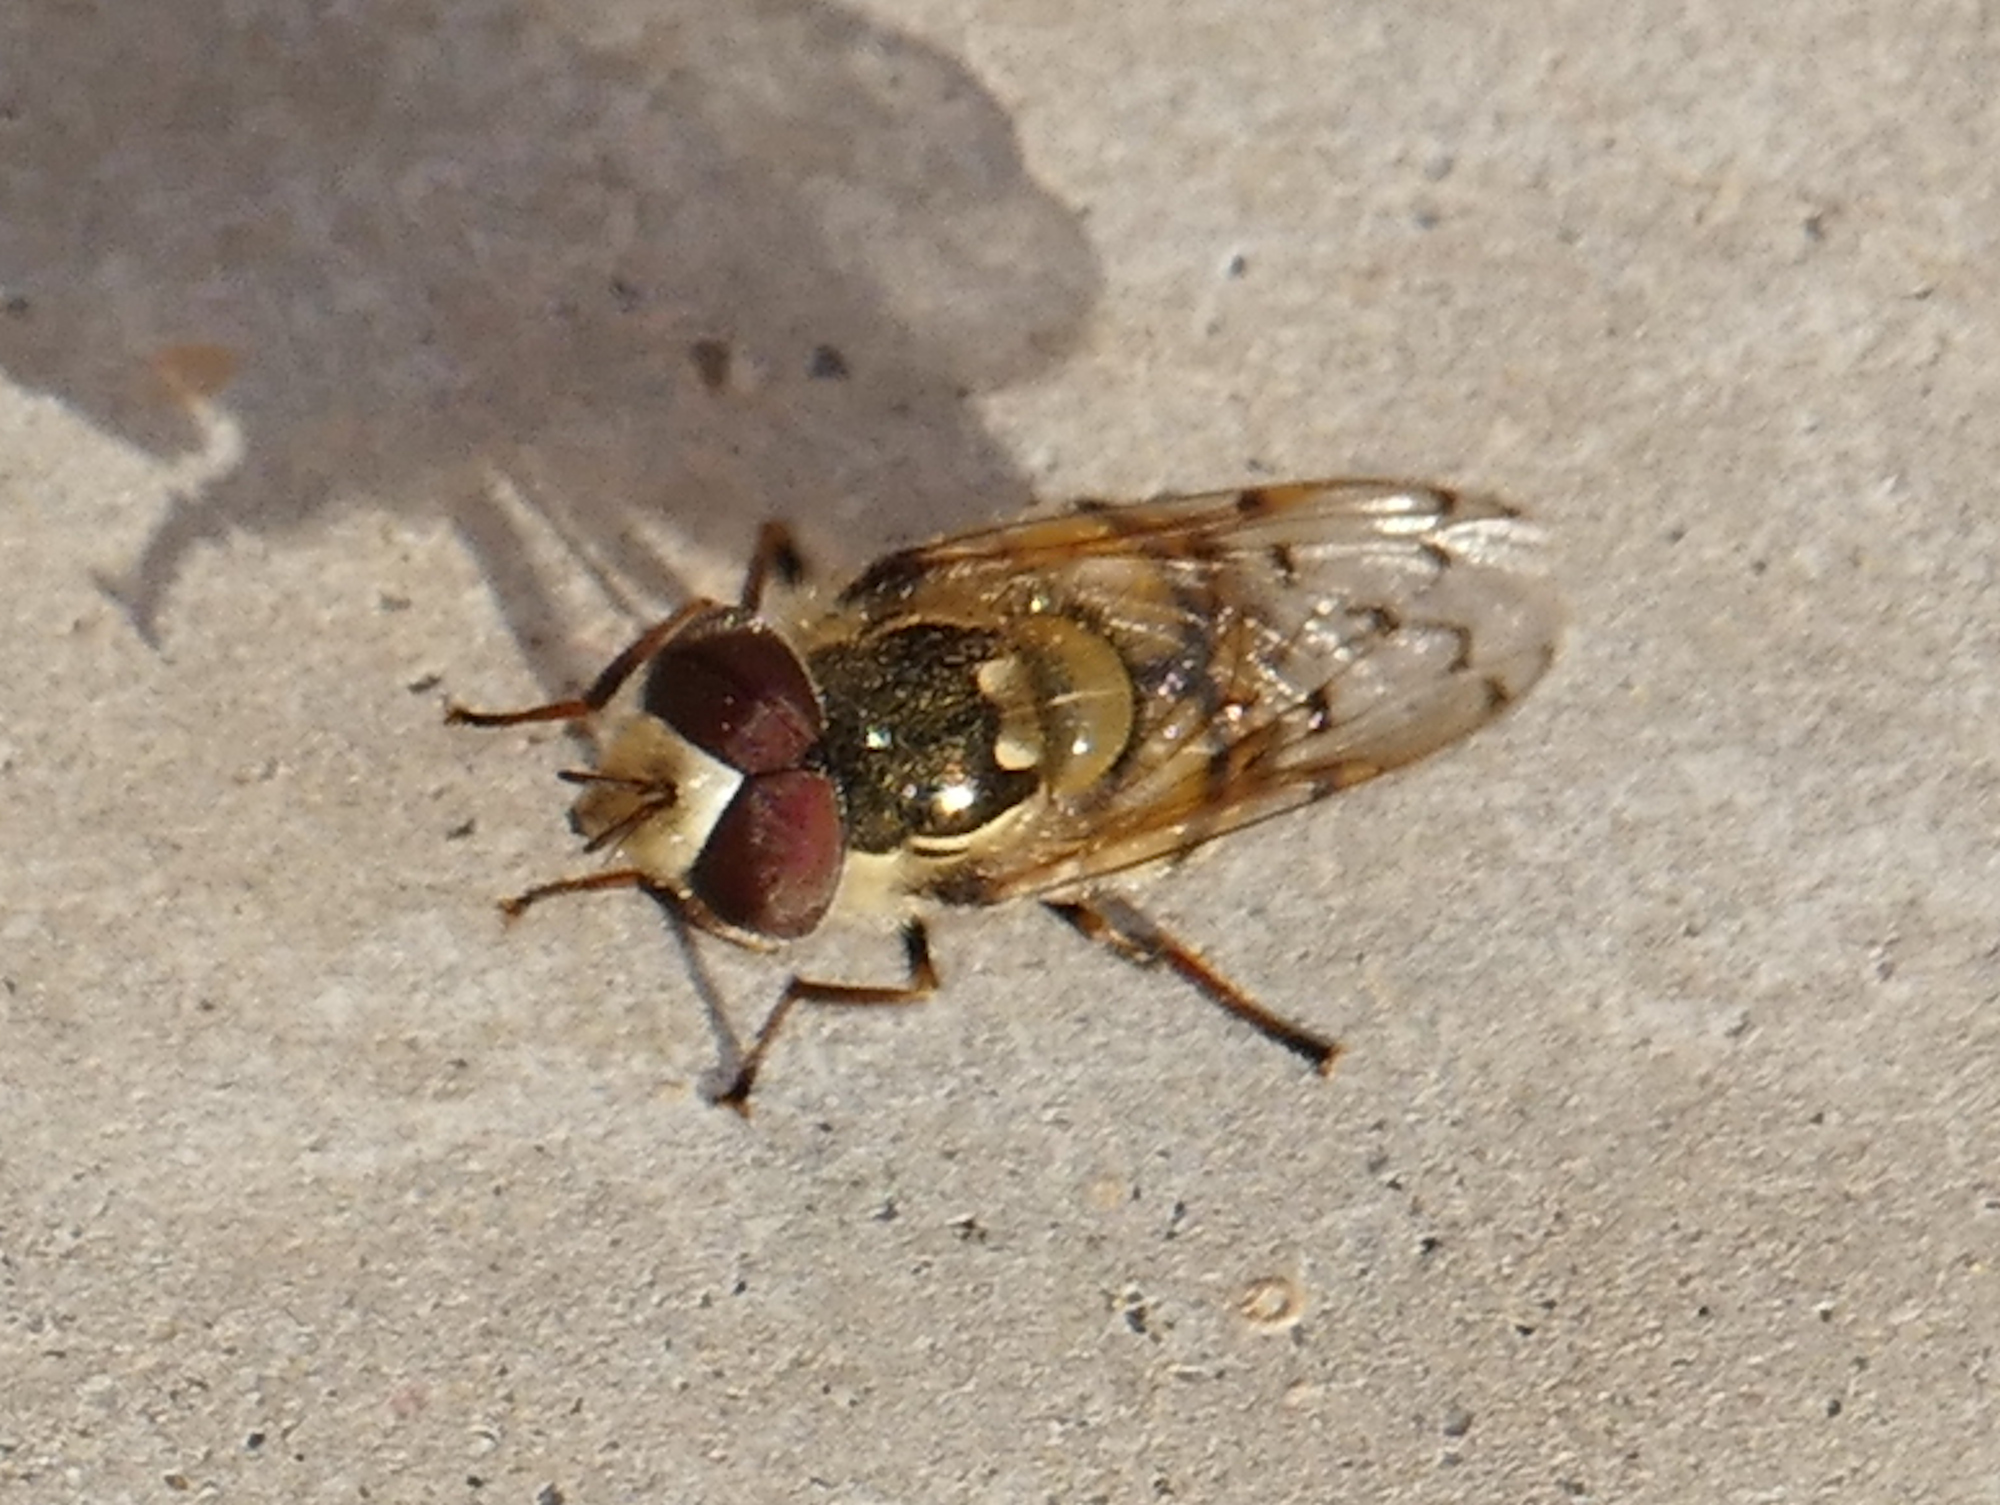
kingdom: Animalia
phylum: Arthropoda
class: Insecta
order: Diptera
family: Syrphidae
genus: Copestylum
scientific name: Copestylum satur
